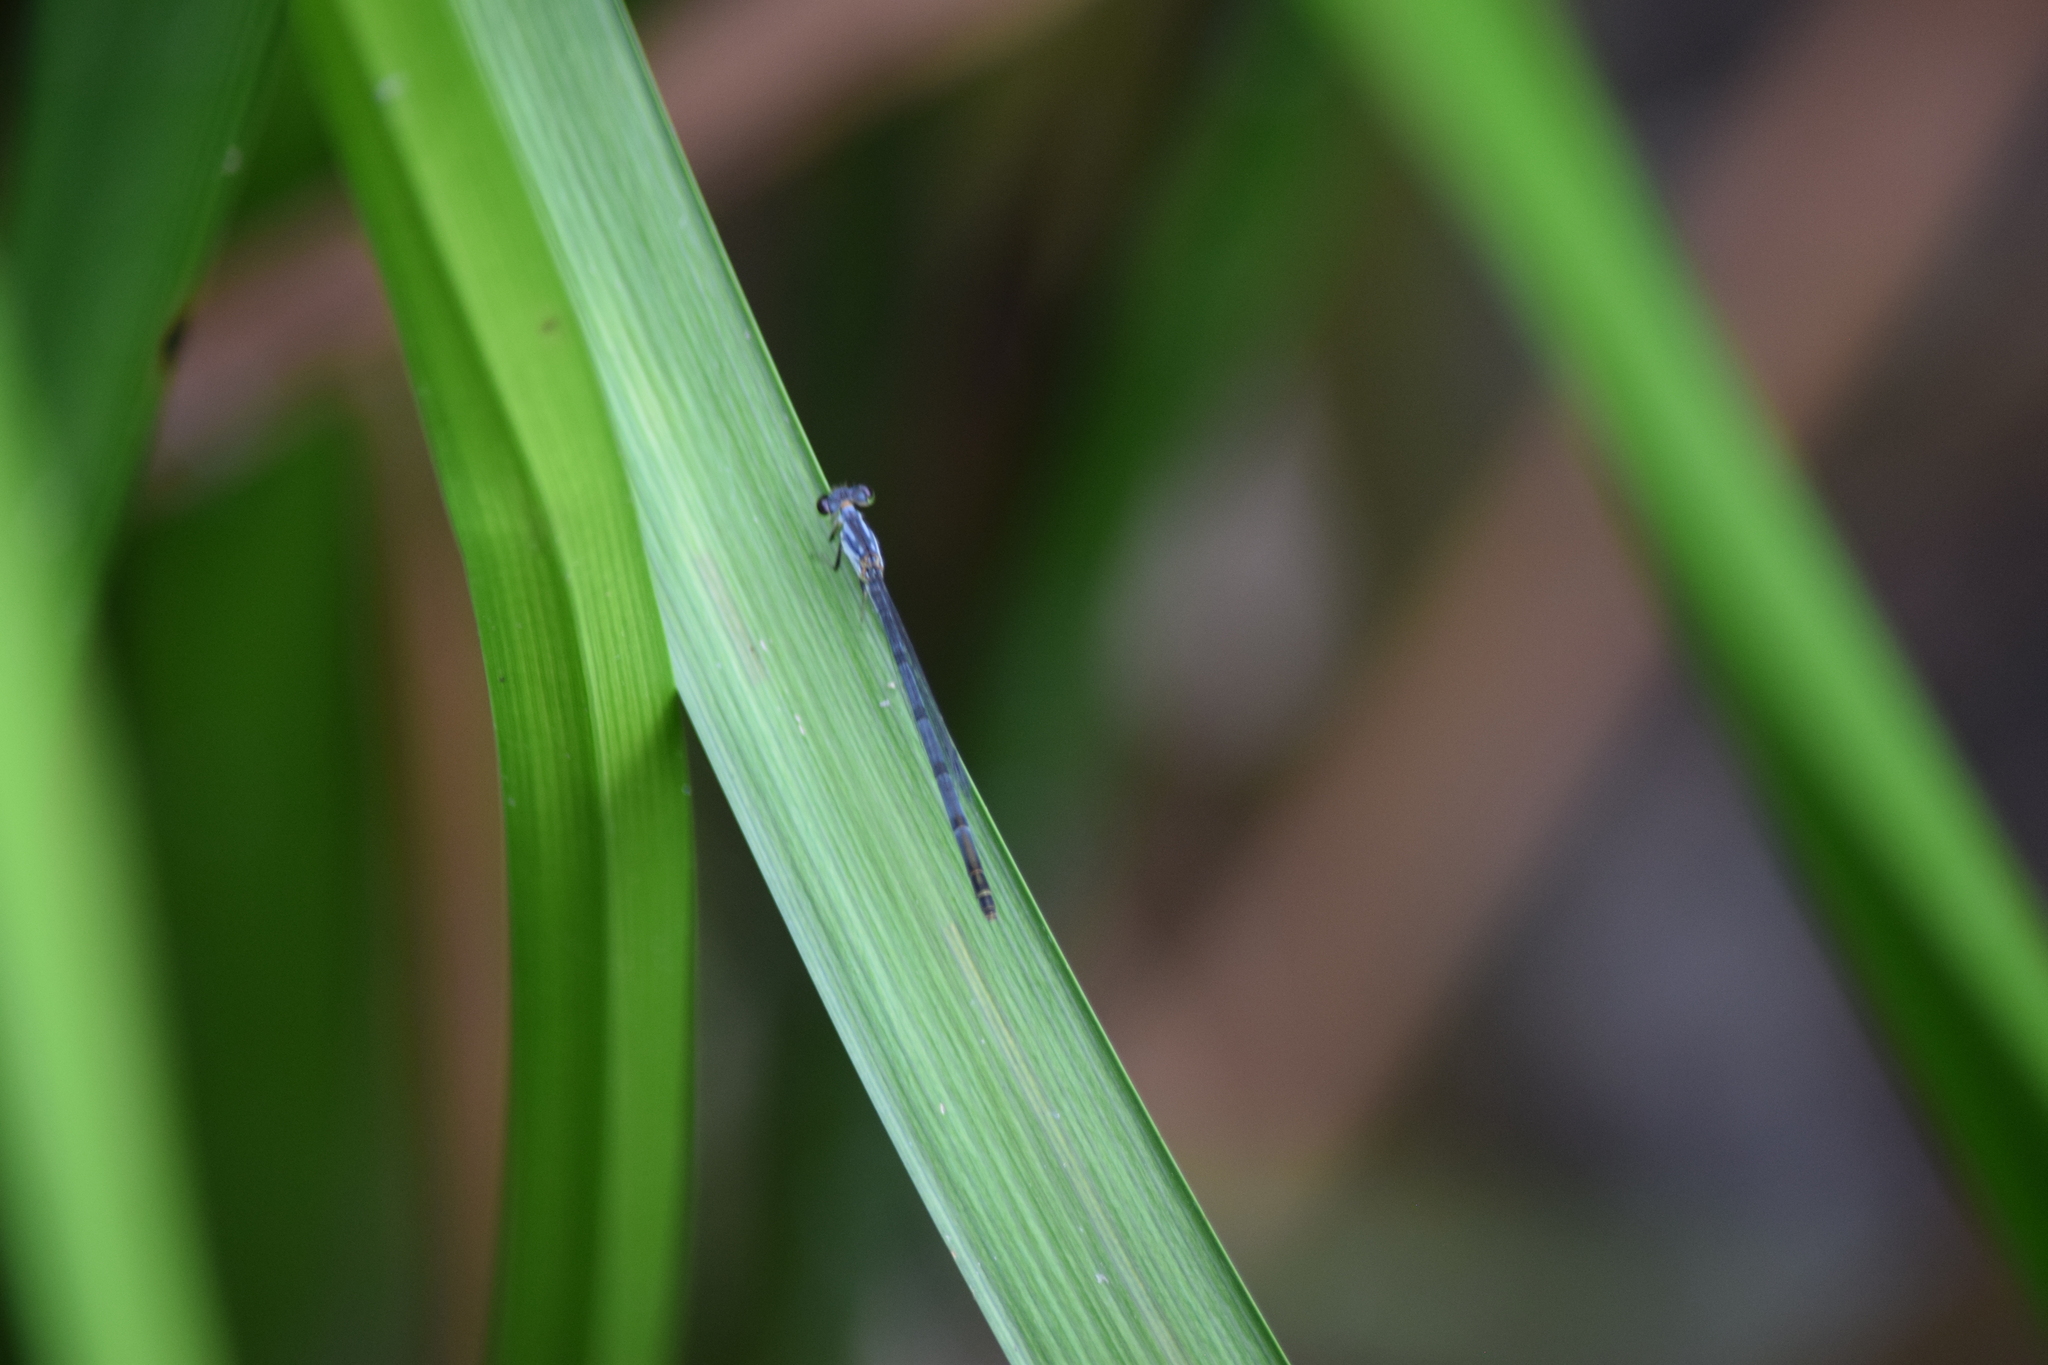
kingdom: Animalia
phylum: Arthropoda
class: Insecta
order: Odonata
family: Coenagrionidae
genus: Ischnura
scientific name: Ischnura posita
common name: Fragile forktail
